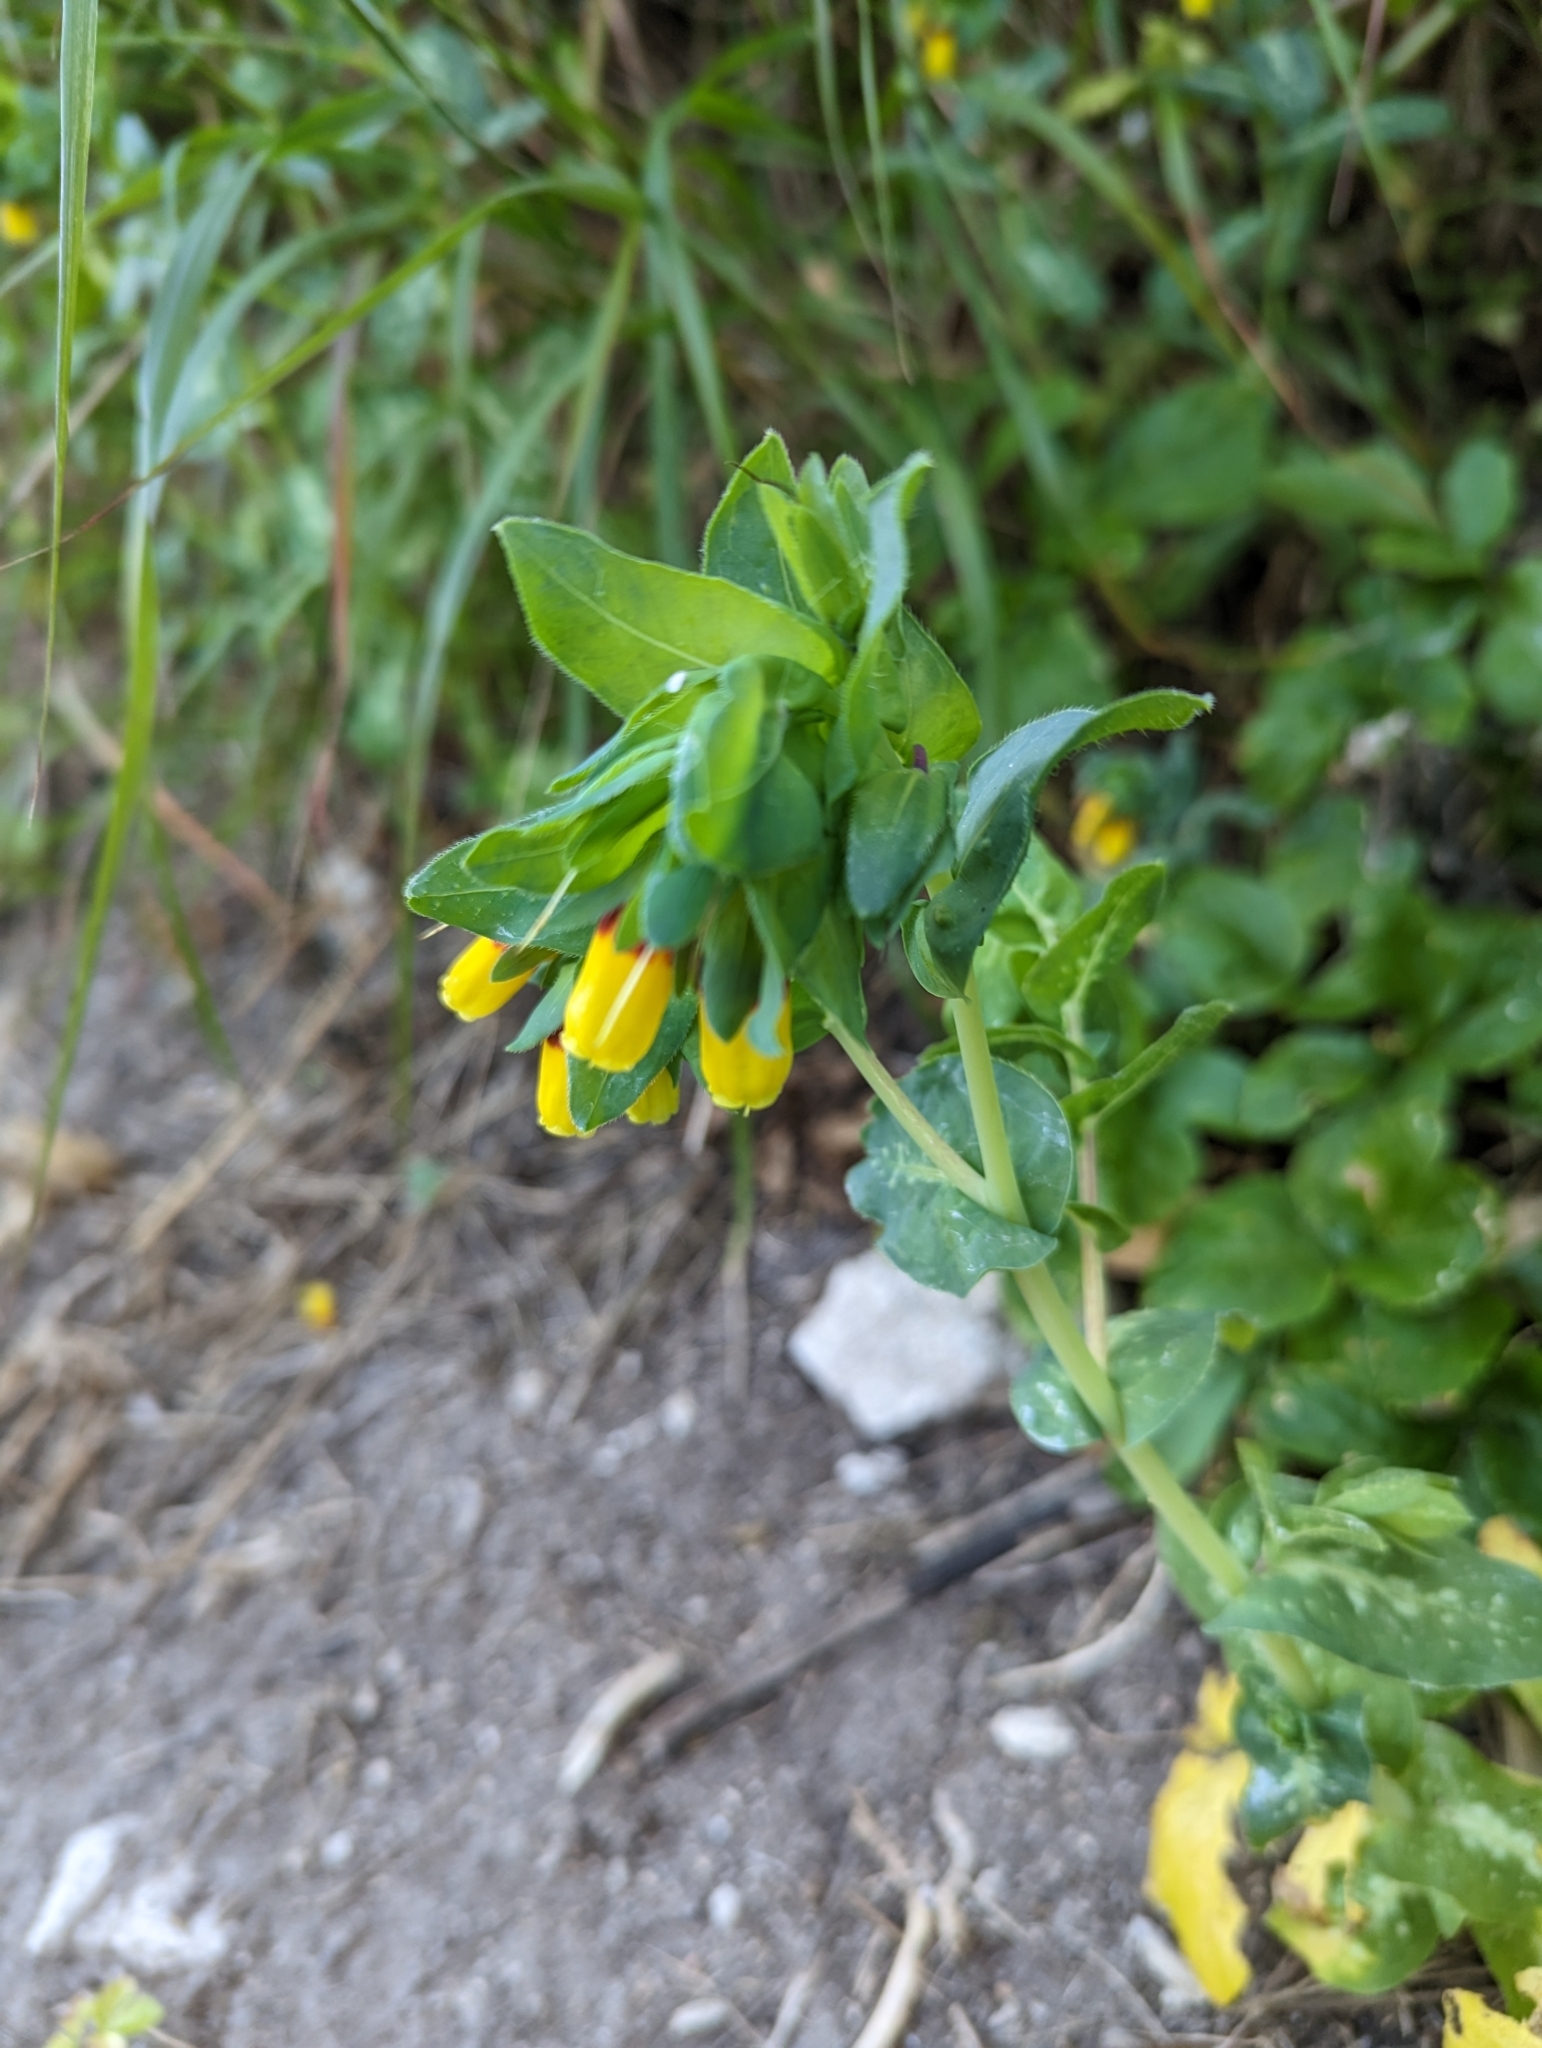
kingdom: Plantae
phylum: Tracheophyta
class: Magnoliopsida
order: Boraginales
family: Boraginaceae
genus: Cerinthe
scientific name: Cerinthe major
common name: Greater honeywort
